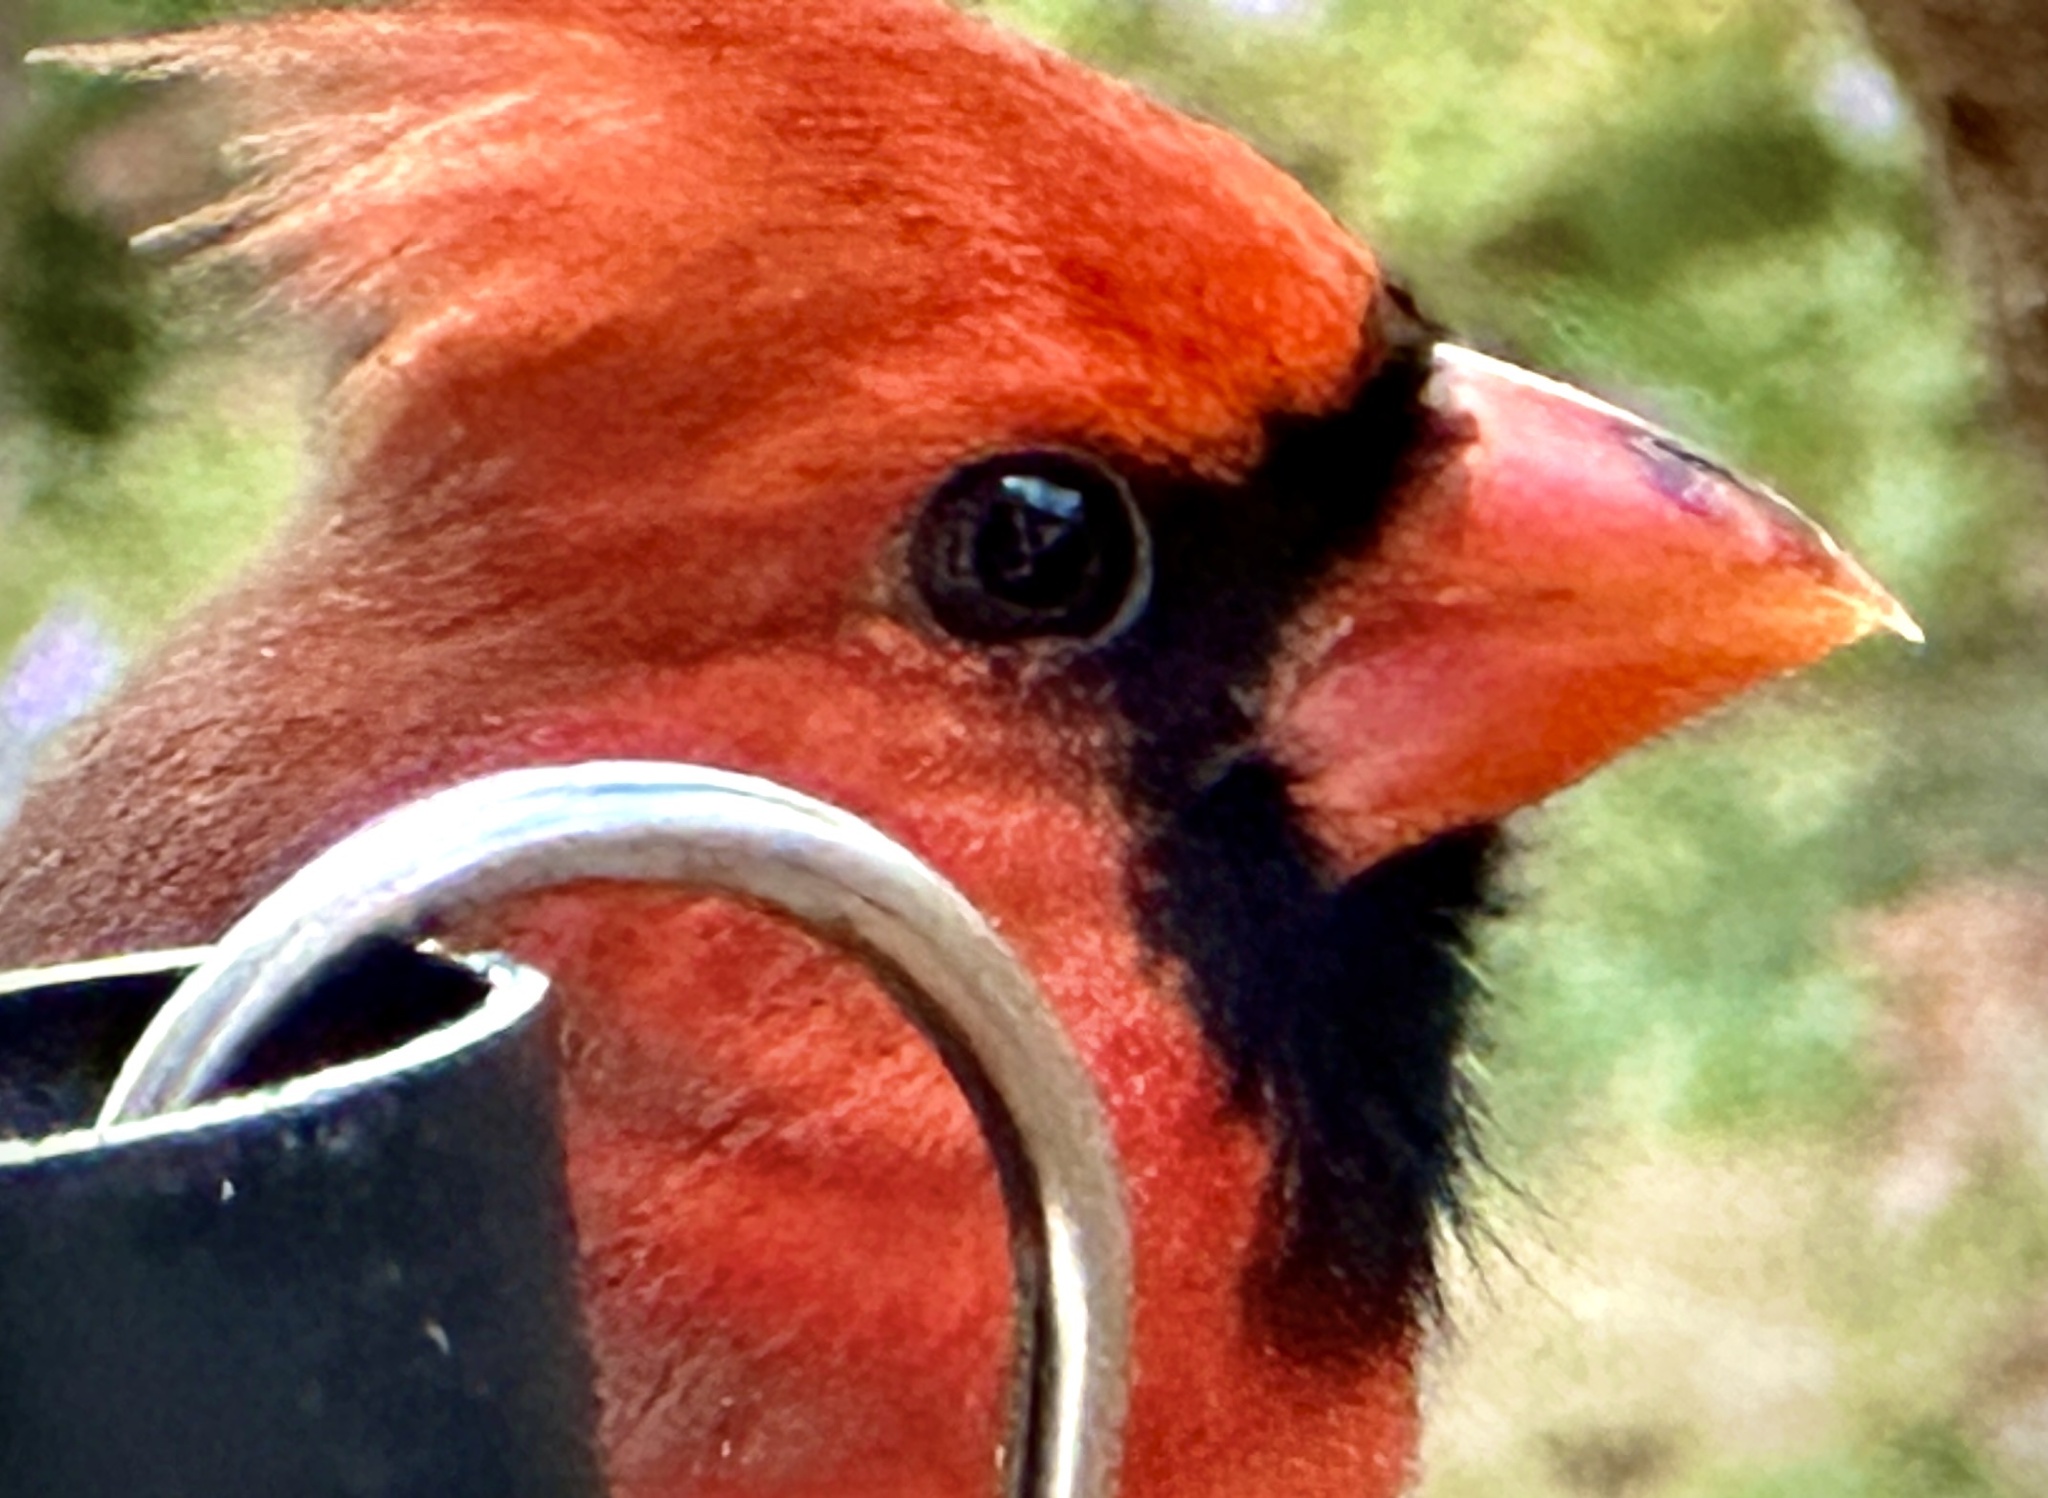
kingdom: Animalia
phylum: Chordata
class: Aves
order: Passeriformes
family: Cardinalidae
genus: Cardinalis
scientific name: Cardinalis cardinalis
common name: Northern cardinal
